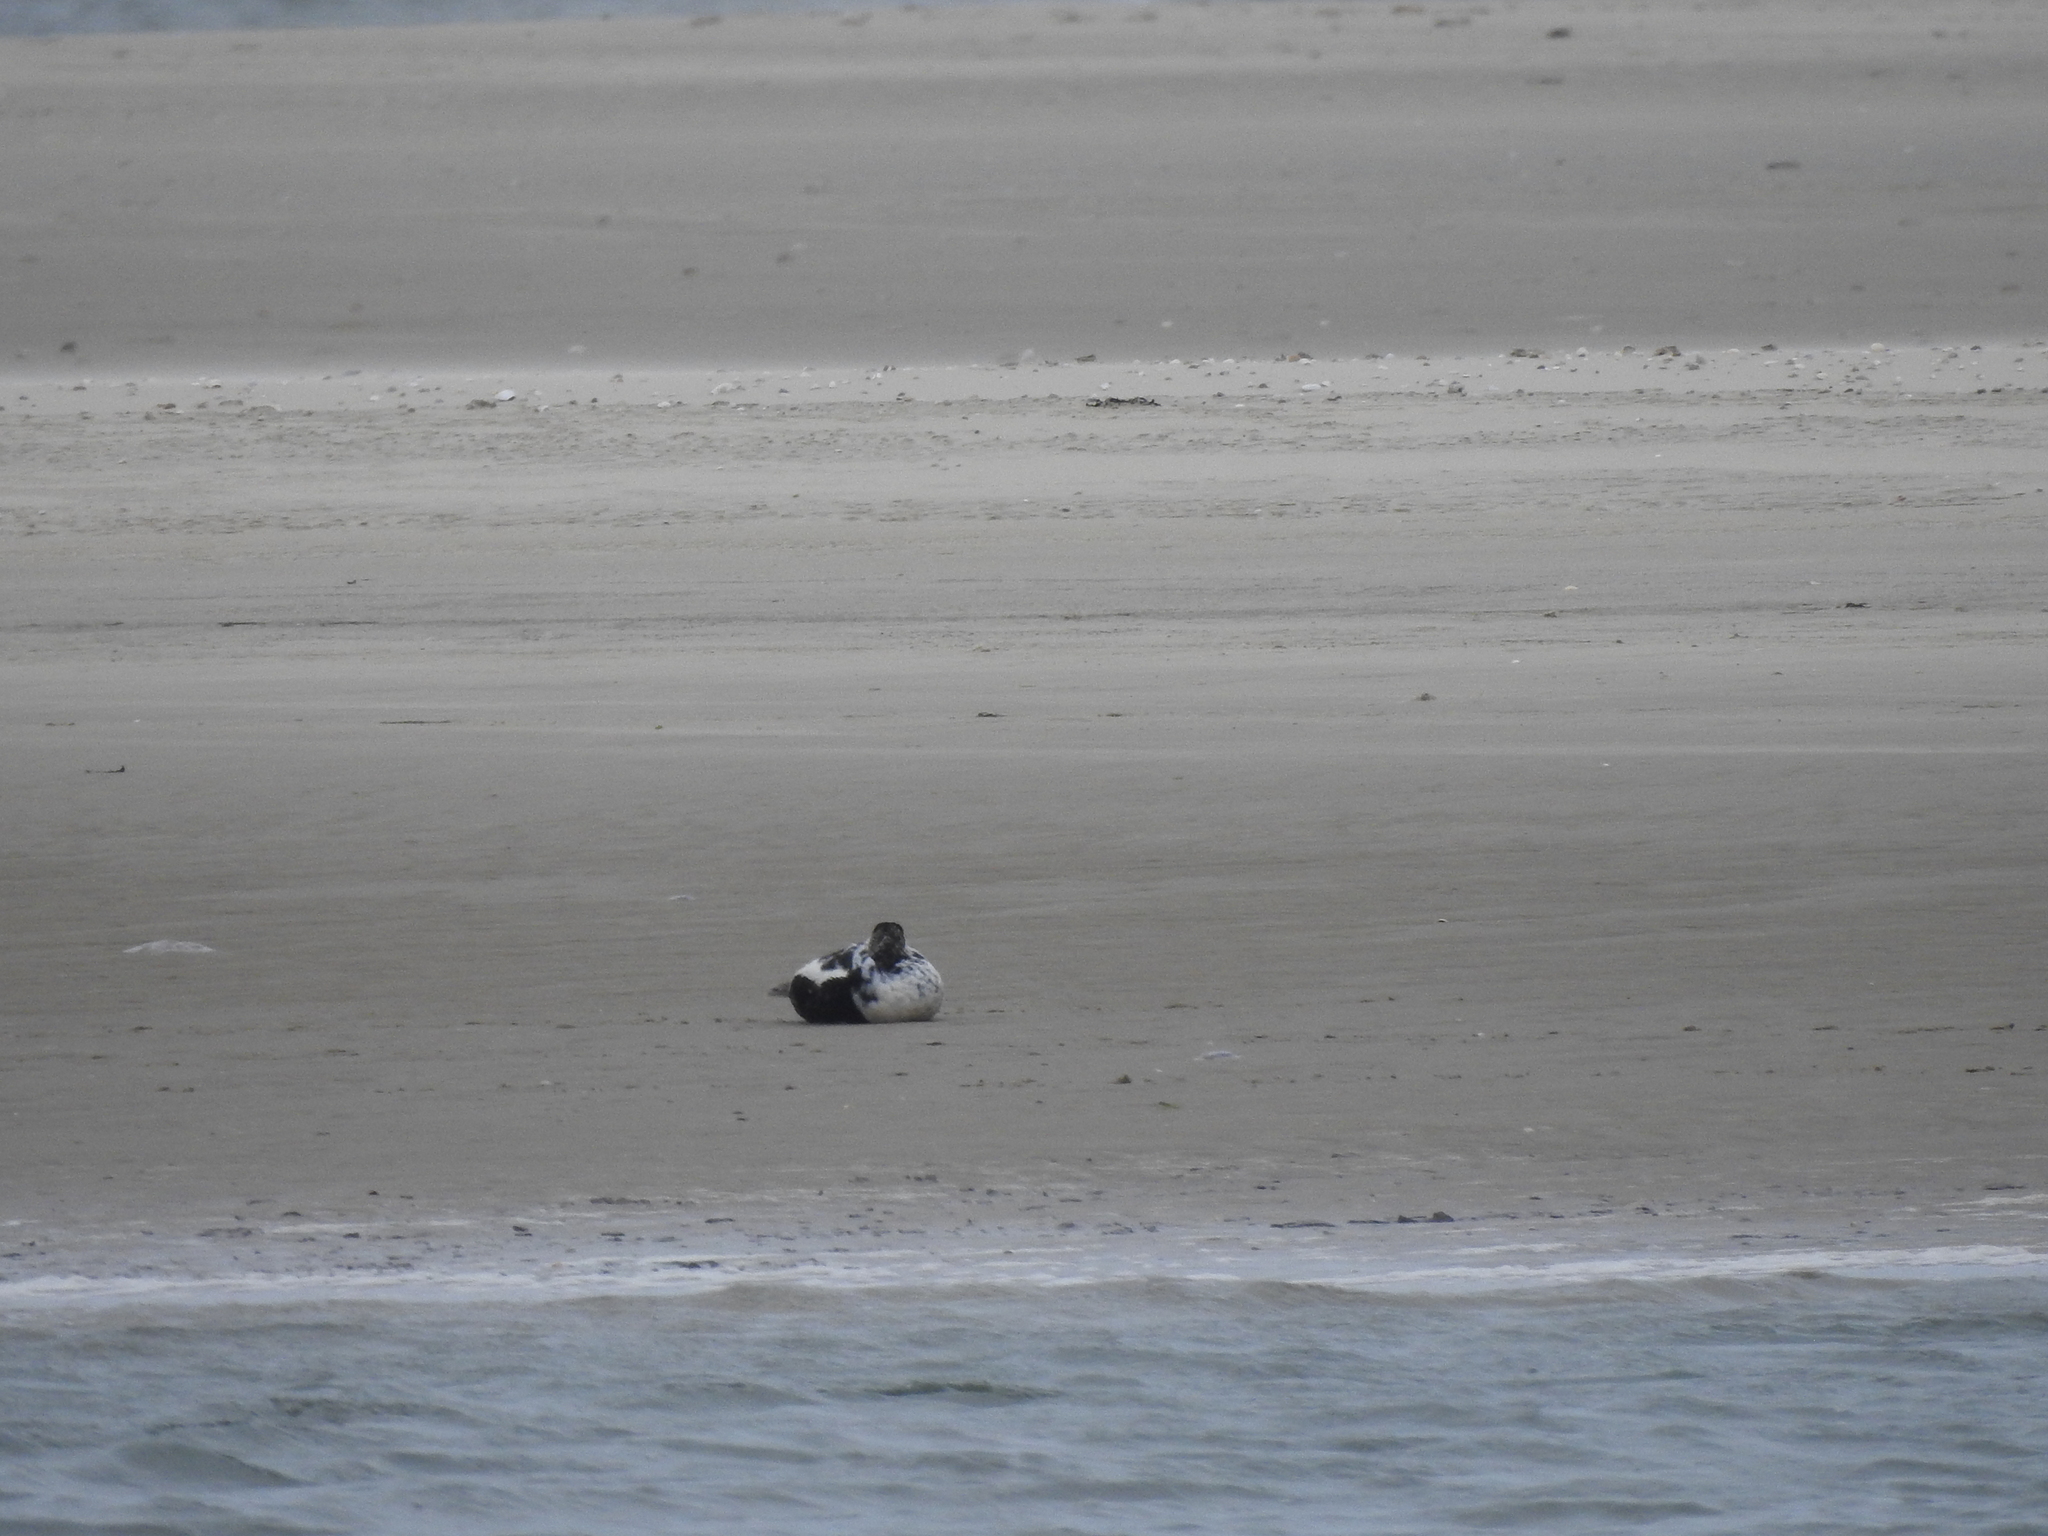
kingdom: Animalia
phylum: Chordata
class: Aves
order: Anseriformes
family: Anatidae
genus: Somateria
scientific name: Somateria mollissima
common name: Common eider
